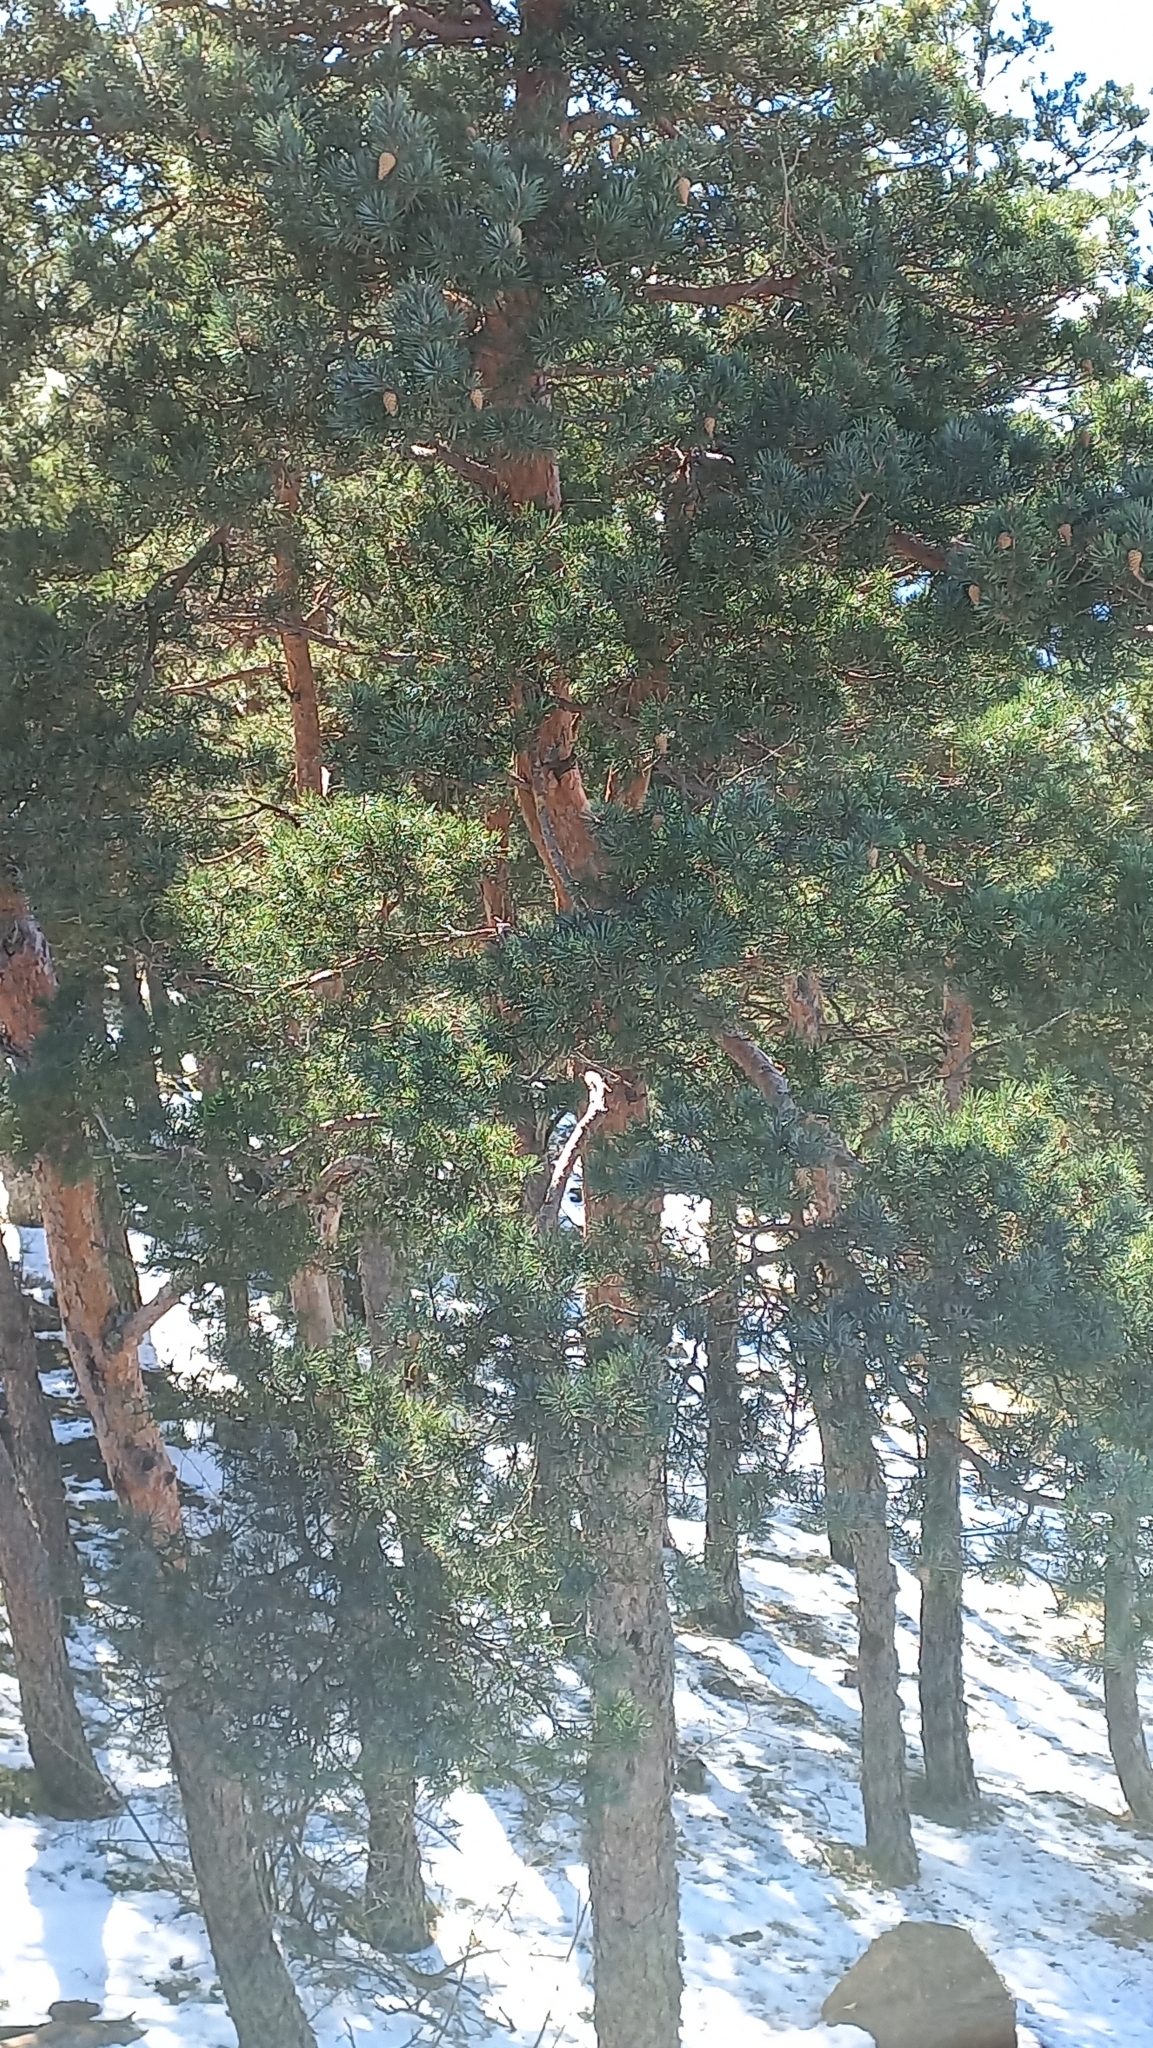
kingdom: Plantae
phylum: Tracheophyta
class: Pinopsida
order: Pinales
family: Pinaceae
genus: Pinus
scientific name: Pinus sylvestris
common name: Scots pine
